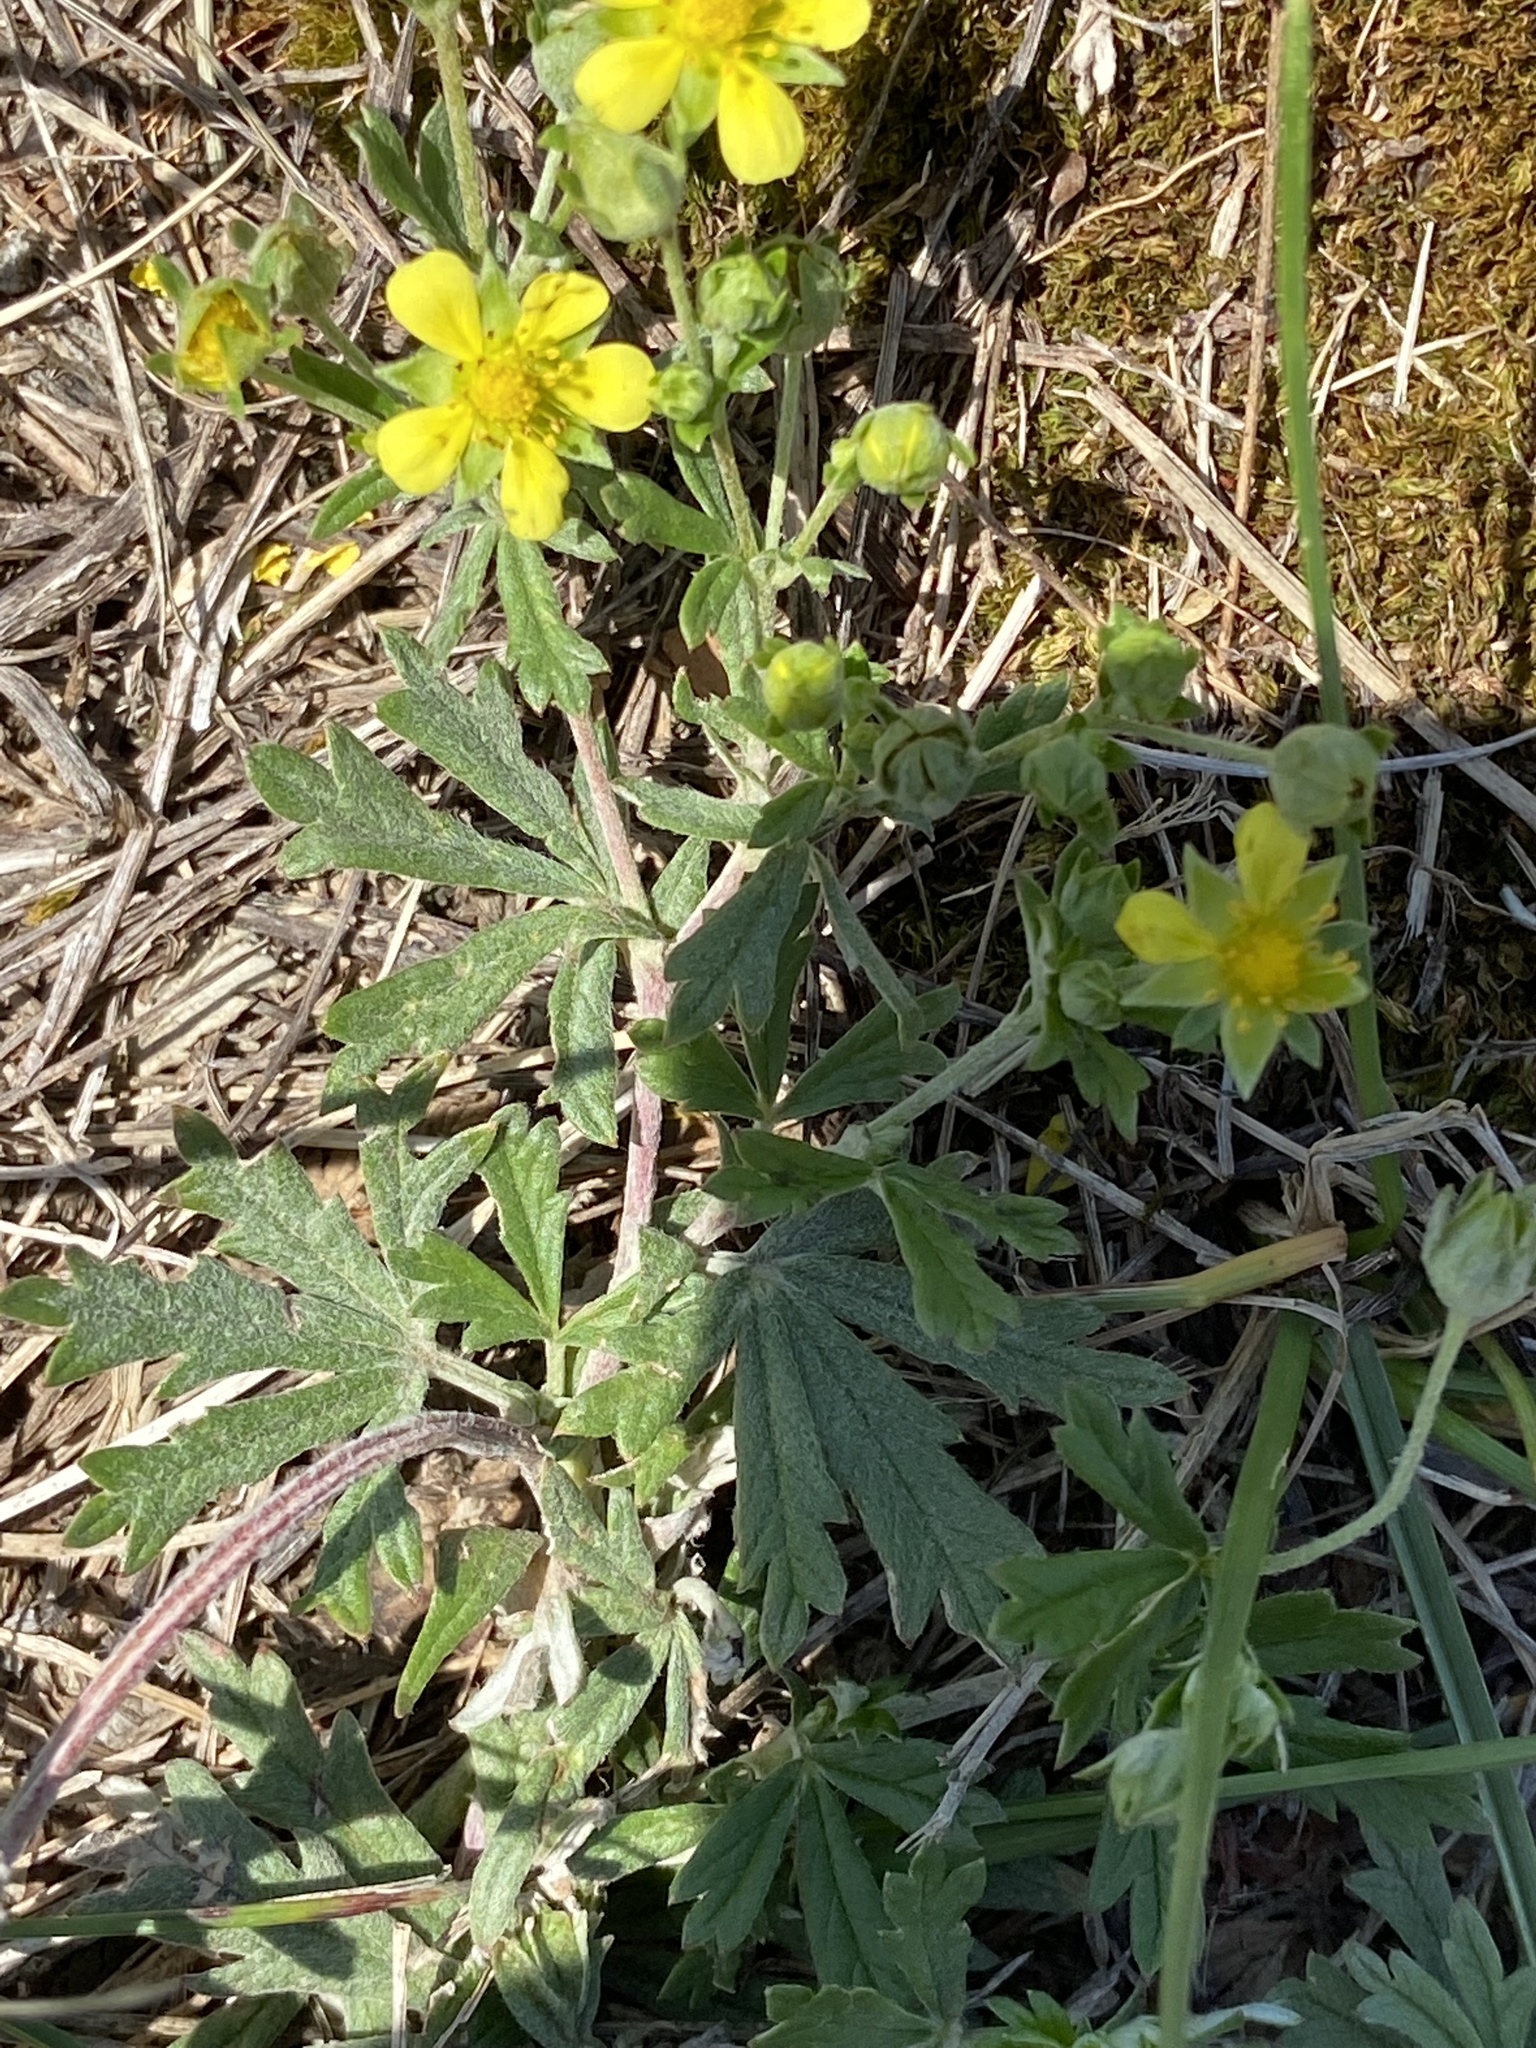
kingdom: Plantae
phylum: Tracheophyta
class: Magnoliopsida
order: Rosales
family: Rosaceae
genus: Potentilla
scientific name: Potentilla argentea
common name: Hoary cinquefoil
